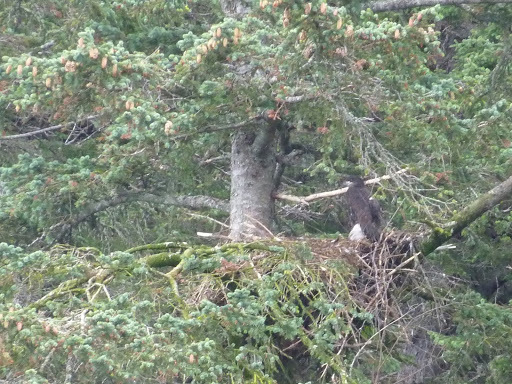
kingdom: Animalia
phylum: Chordata
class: Aves
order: Accipitriformes
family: Accipitridae
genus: Haliaeetus
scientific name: Haliaeetus leucocephalus
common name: Bald eagle
